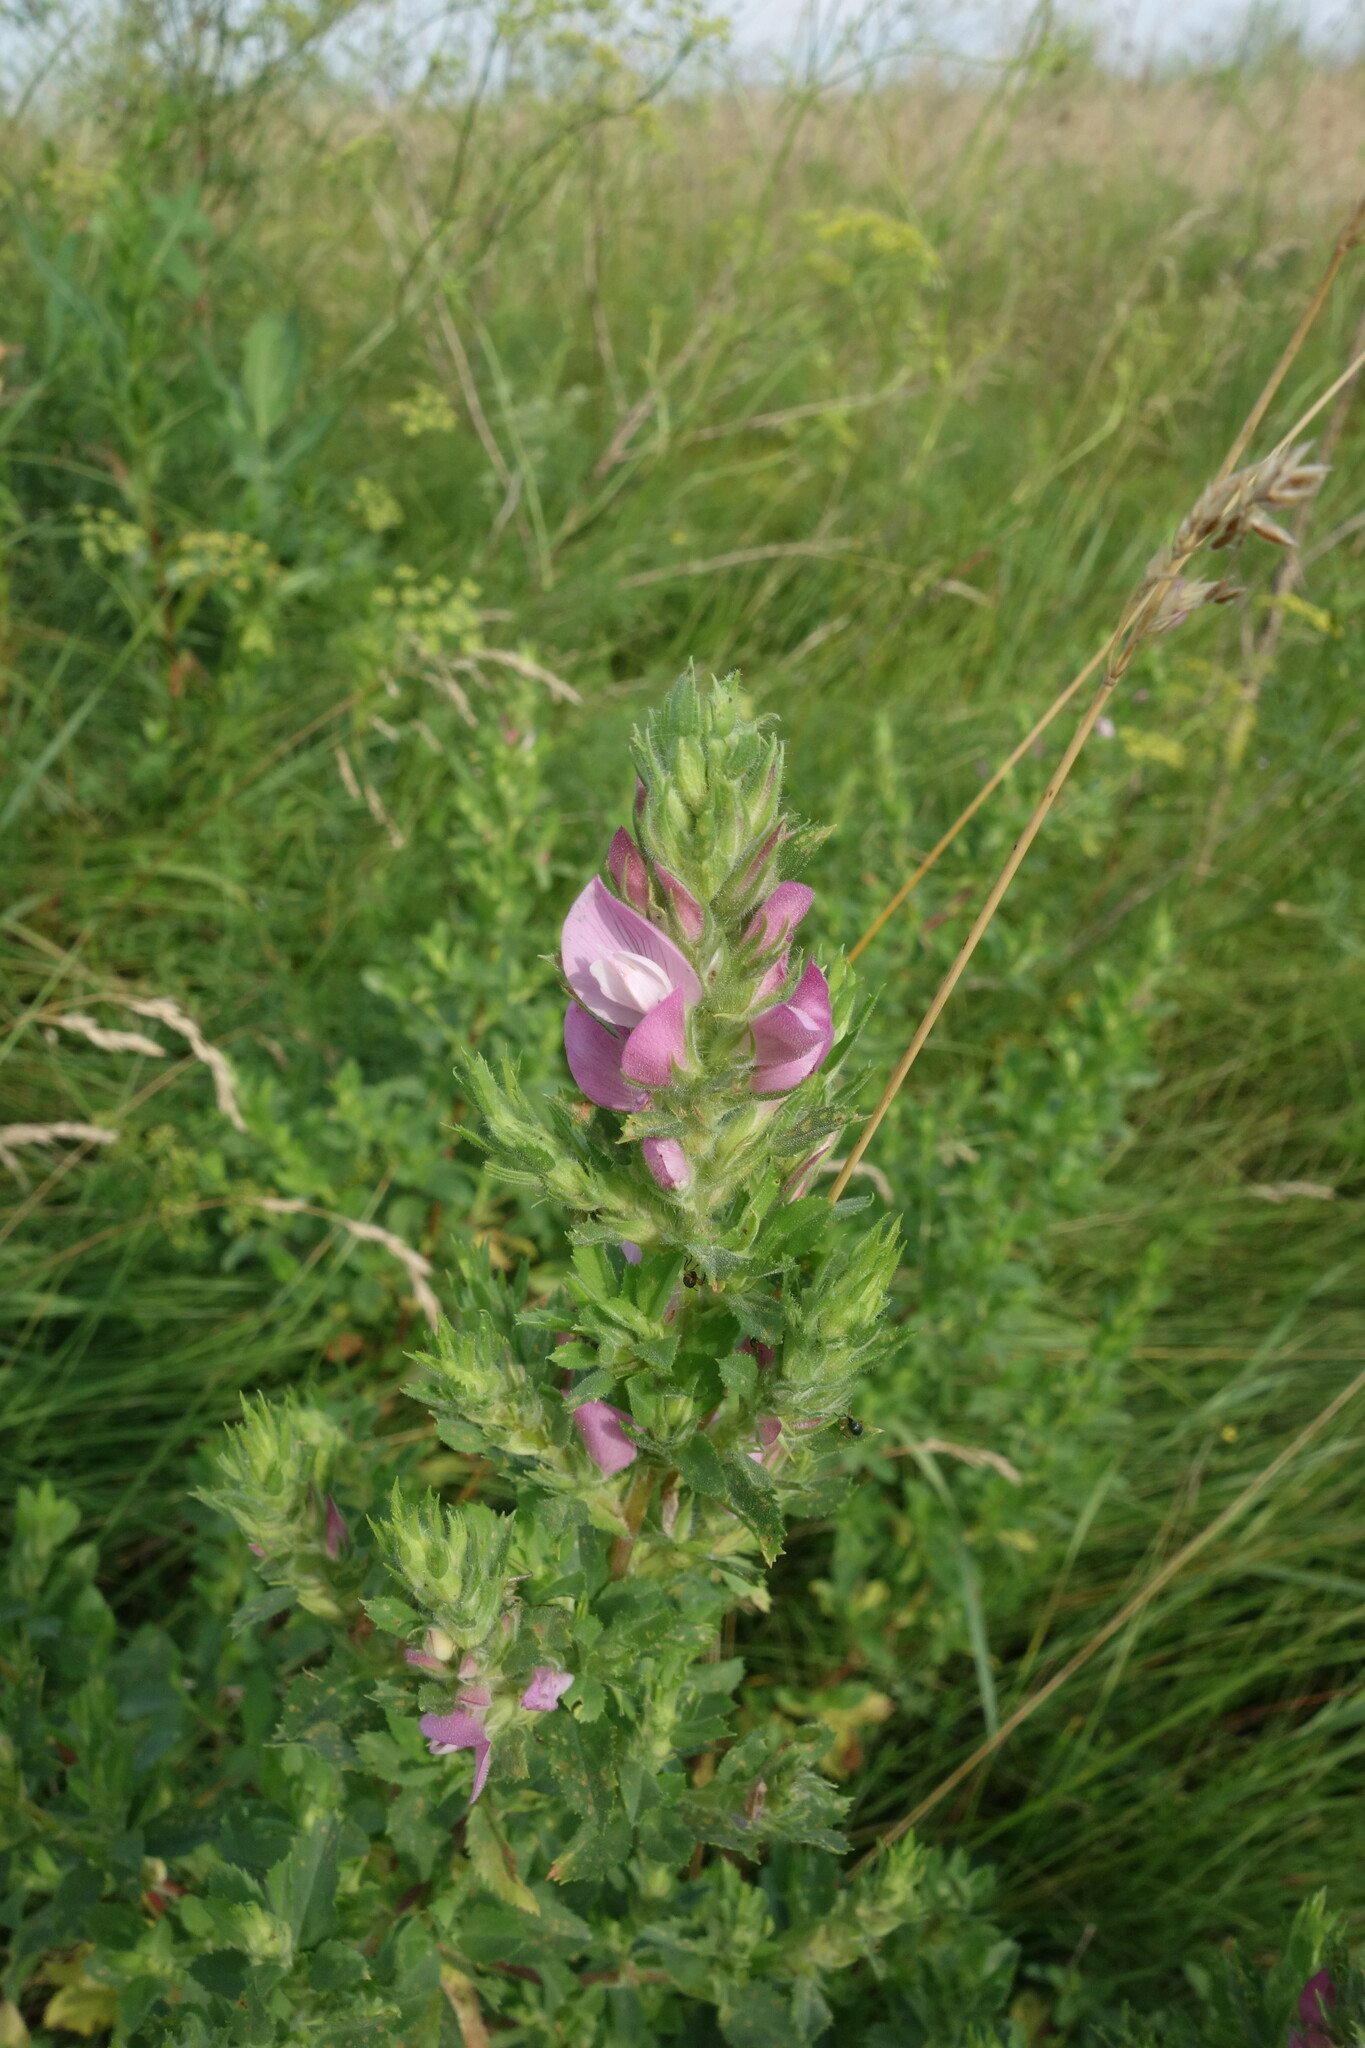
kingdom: Plantae
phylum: Tracheophyta
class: Magnoliopsida
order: Fabales
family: Fabaceae
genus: Ononis
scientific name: Ononis arvensis
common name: Field restharrow
